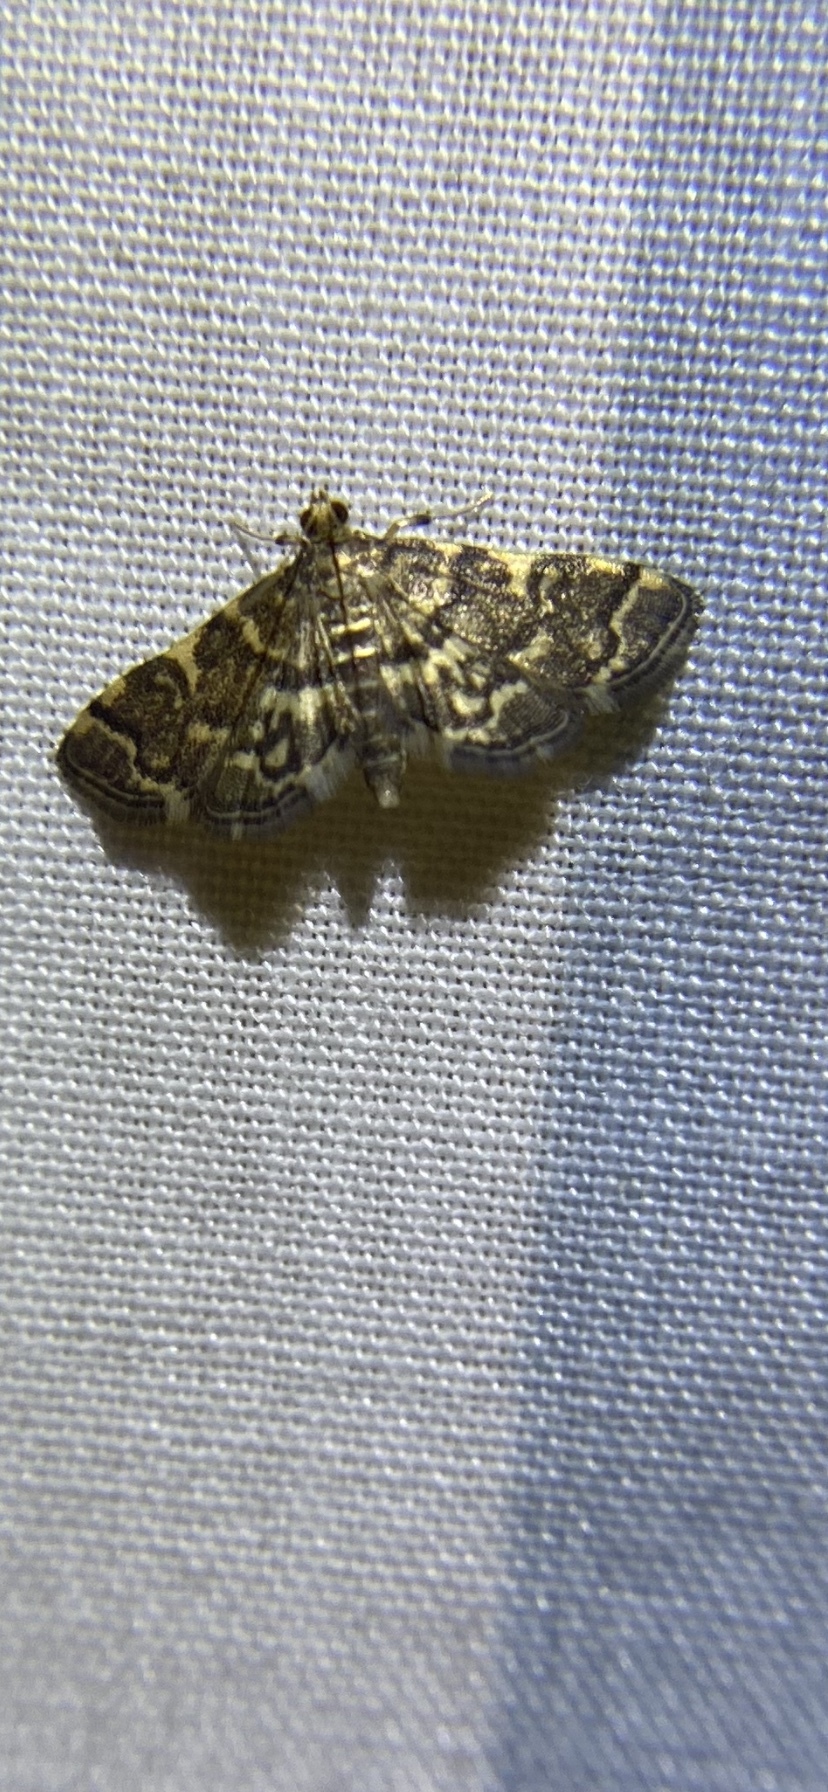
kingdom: Animalia
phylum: Arthropoda
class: Insecta
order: Lepidoptera
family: Crambidae
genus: Anageshna
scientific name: Anageshna primordialis
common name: Yellow-spotted webworm moth
